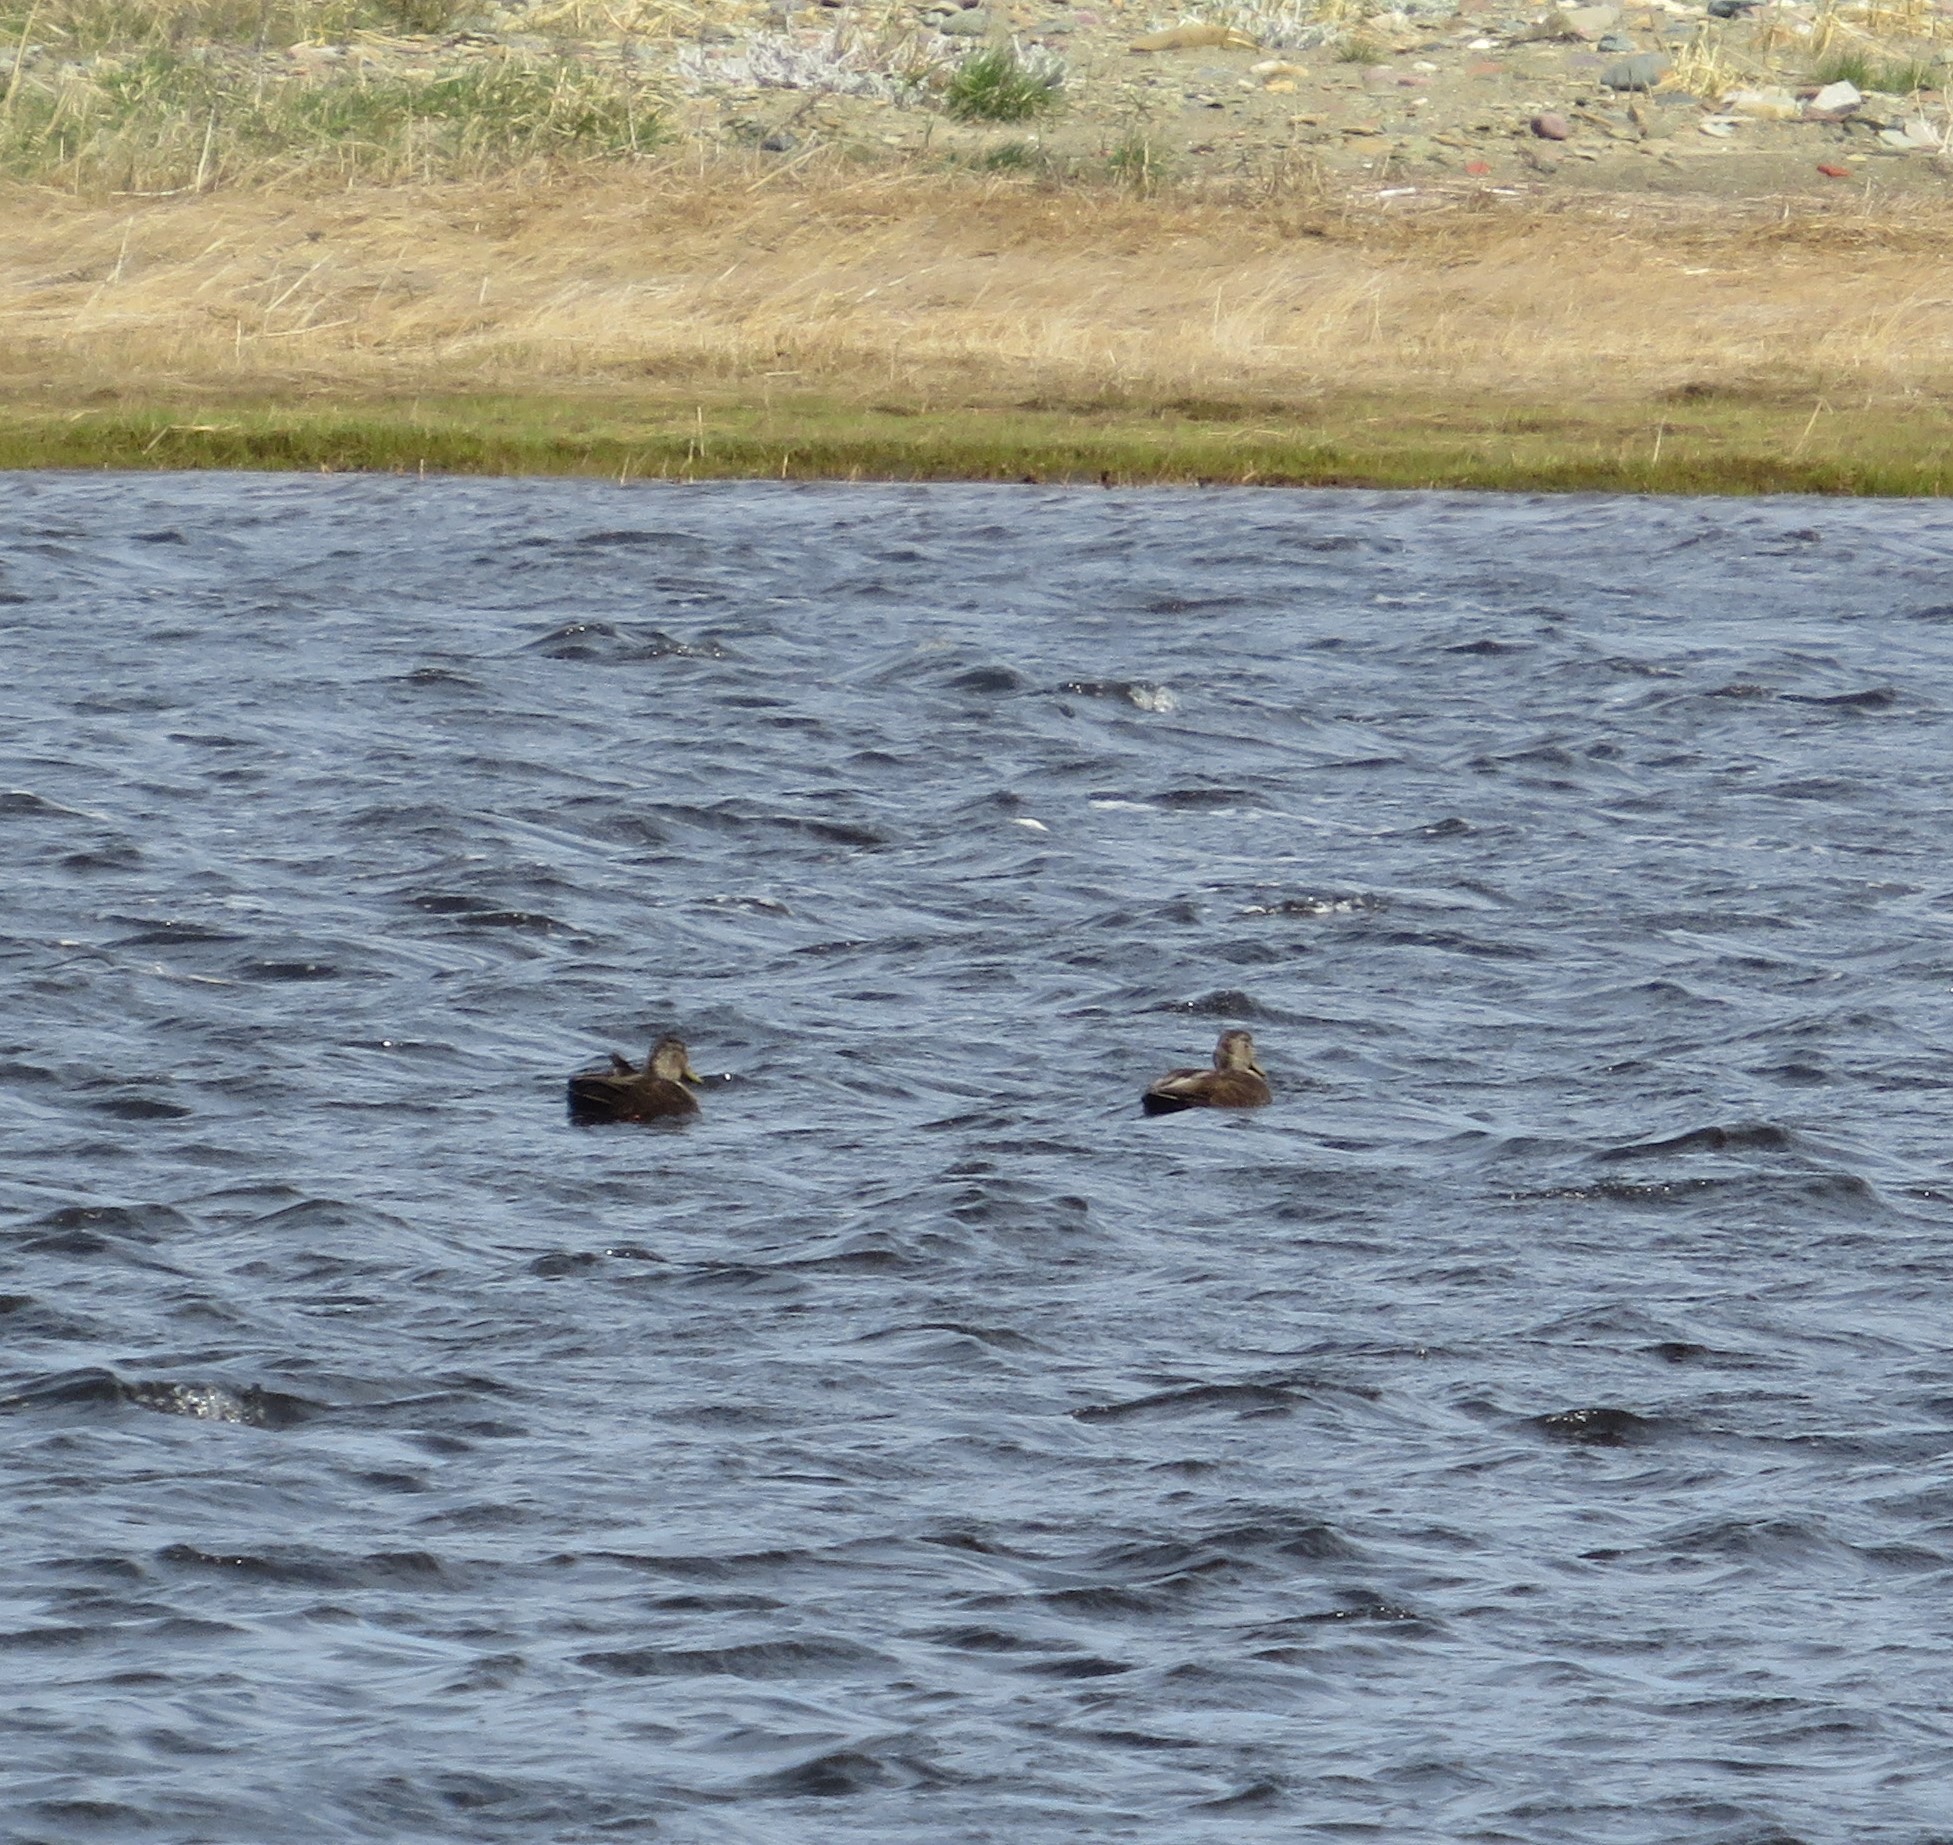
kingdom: Animalia
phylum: Chordata
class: Aves
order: Anseriformes
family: Anatidae
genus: Anas
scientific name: Anas rubripes
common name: American black duck
